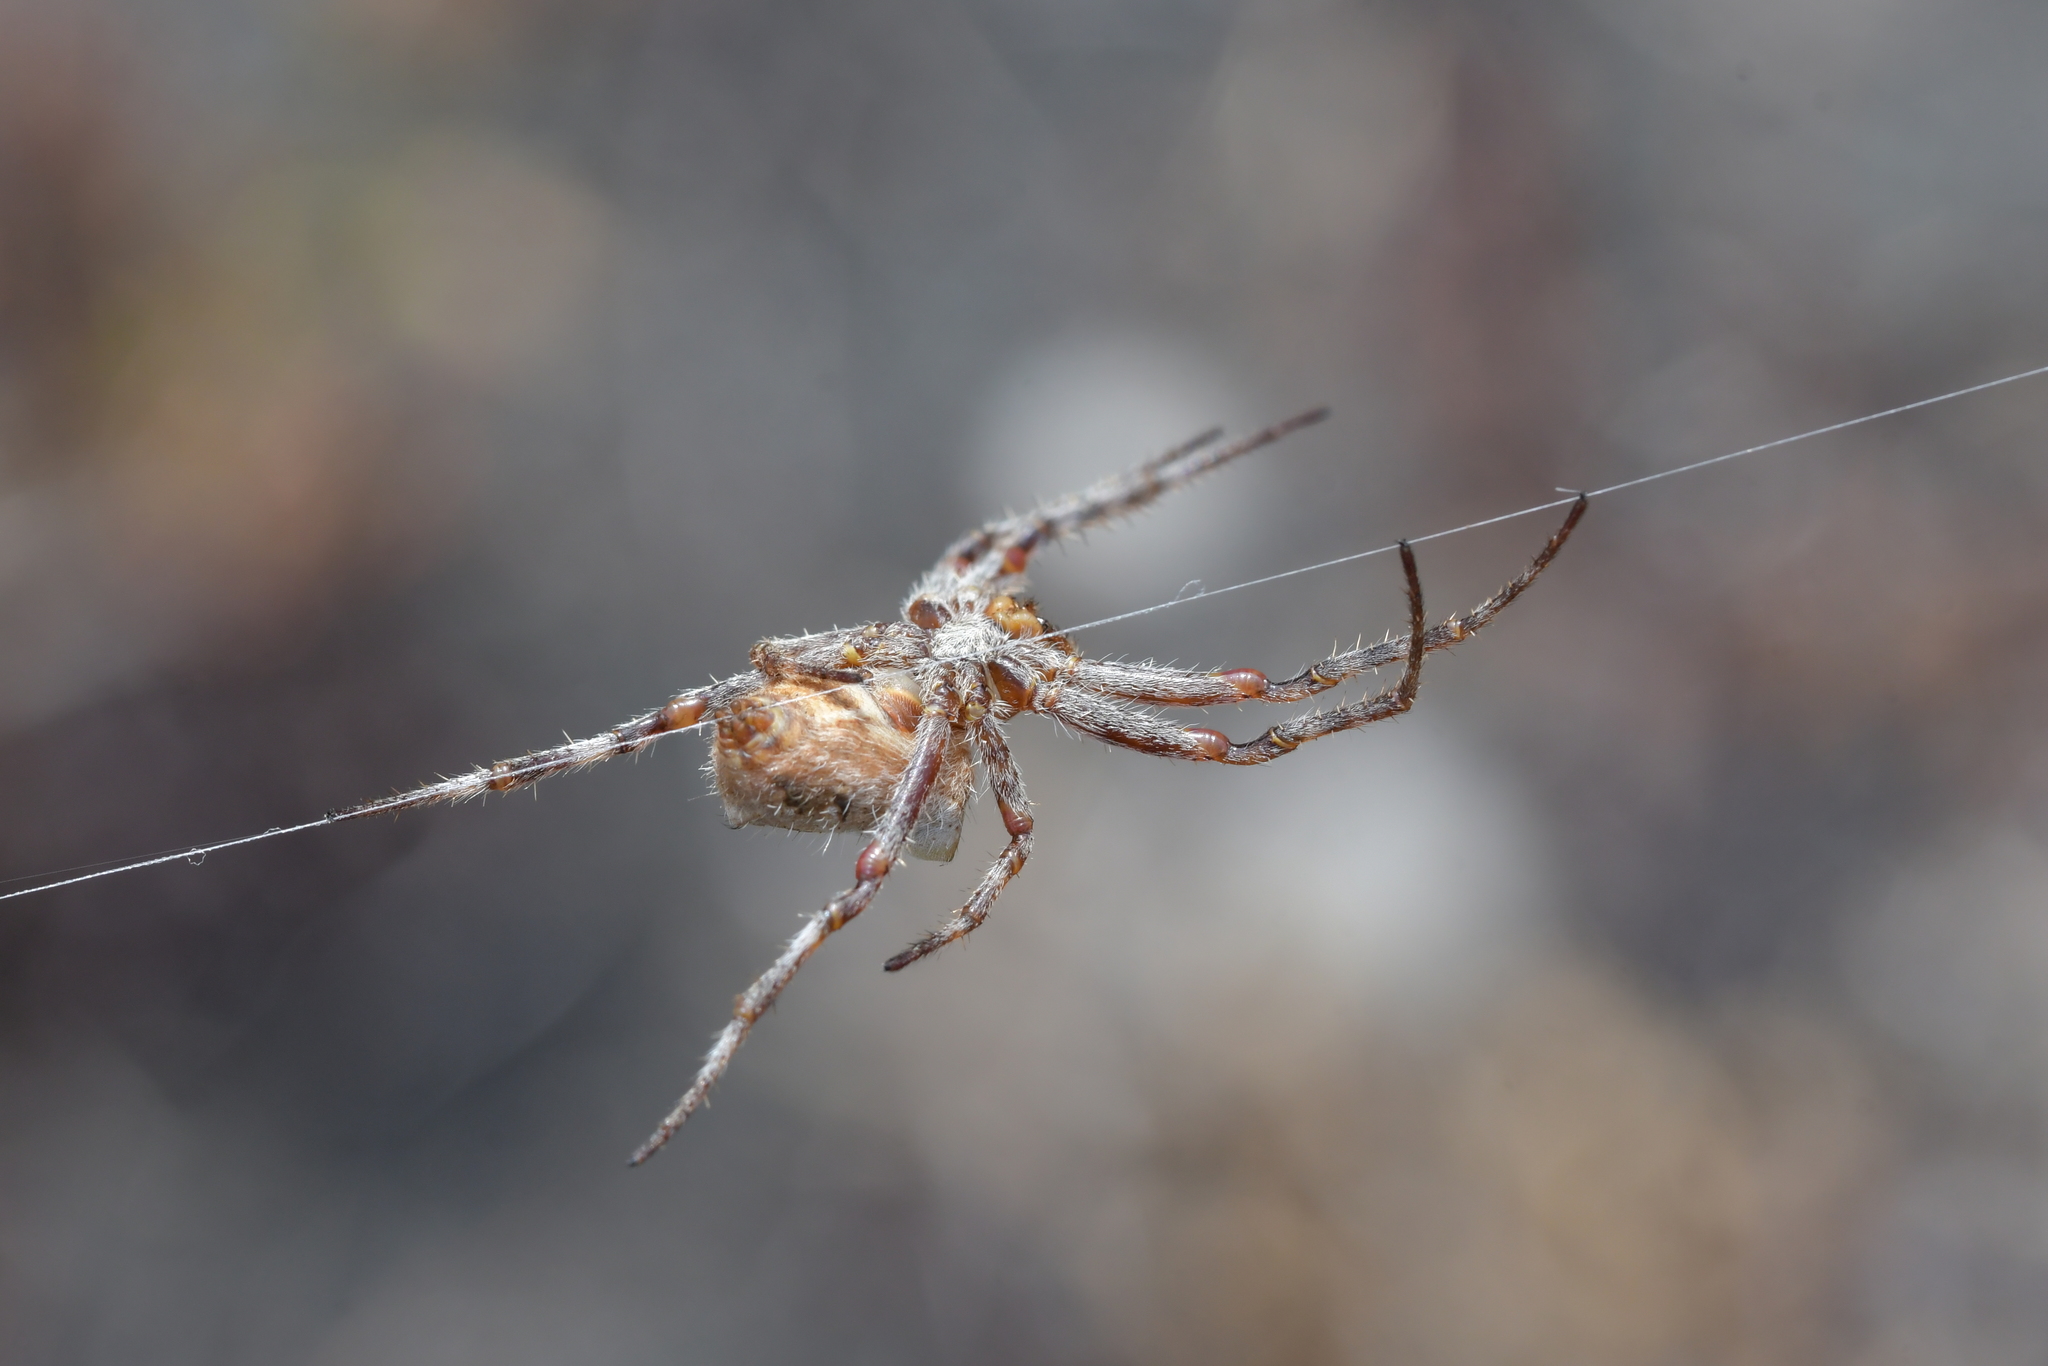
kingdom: Animalia
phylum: Arthropoda
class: Arachnida
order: Araneae
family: Araneidae
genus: Backobourkia
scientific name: Backobourkia brouni
